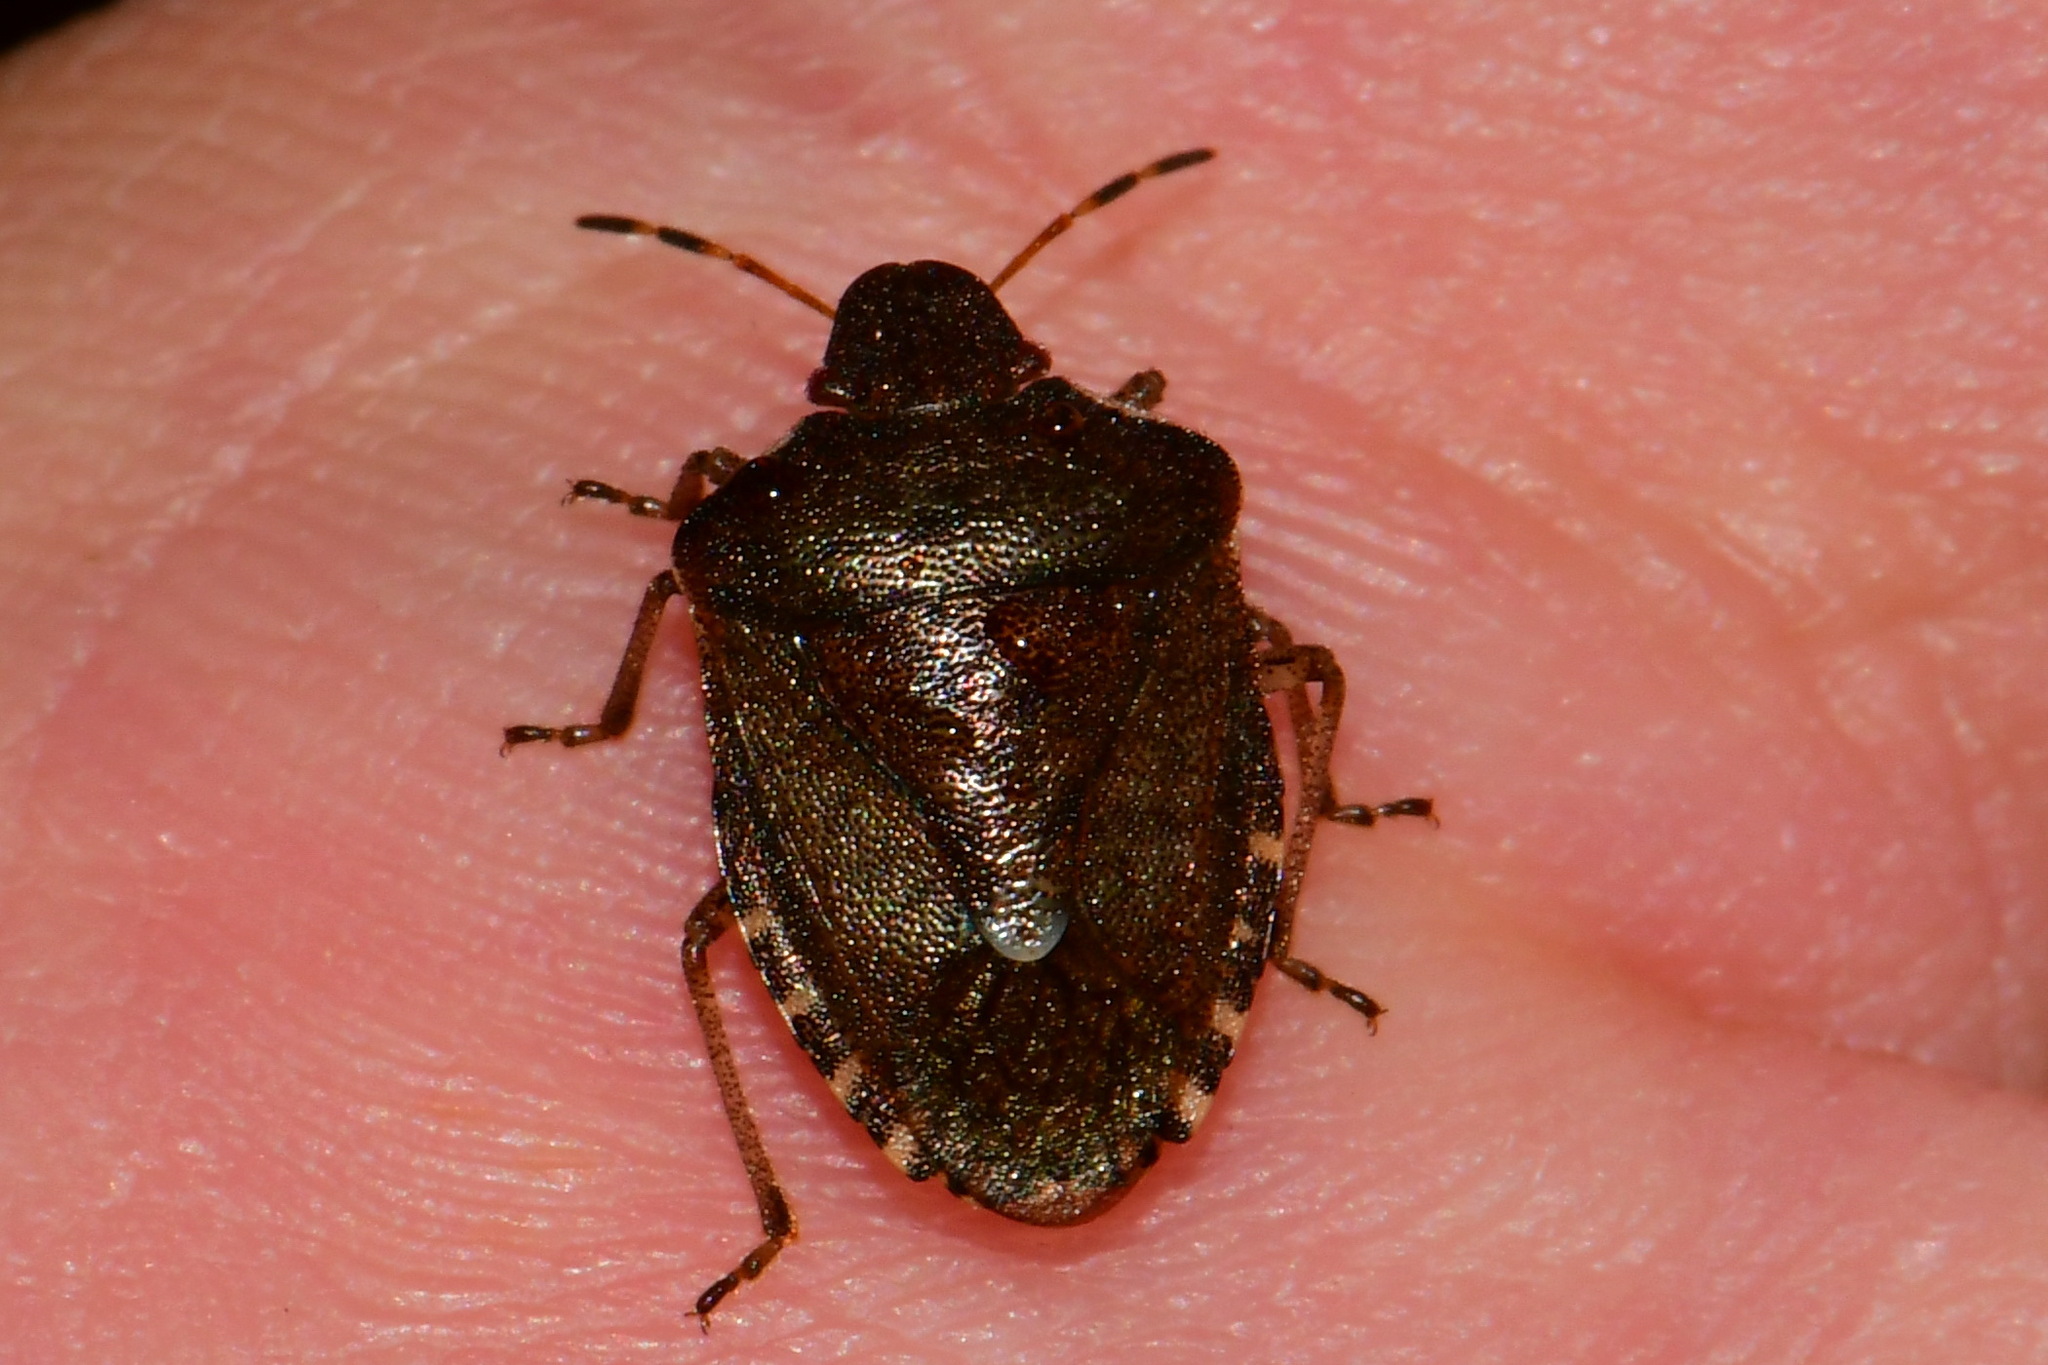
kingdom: Animalia
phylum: Arthropoda
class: Insecta
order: Hemiptera
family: Pentatomidae
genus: Holcostethus
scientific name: Holcostethus strictus
